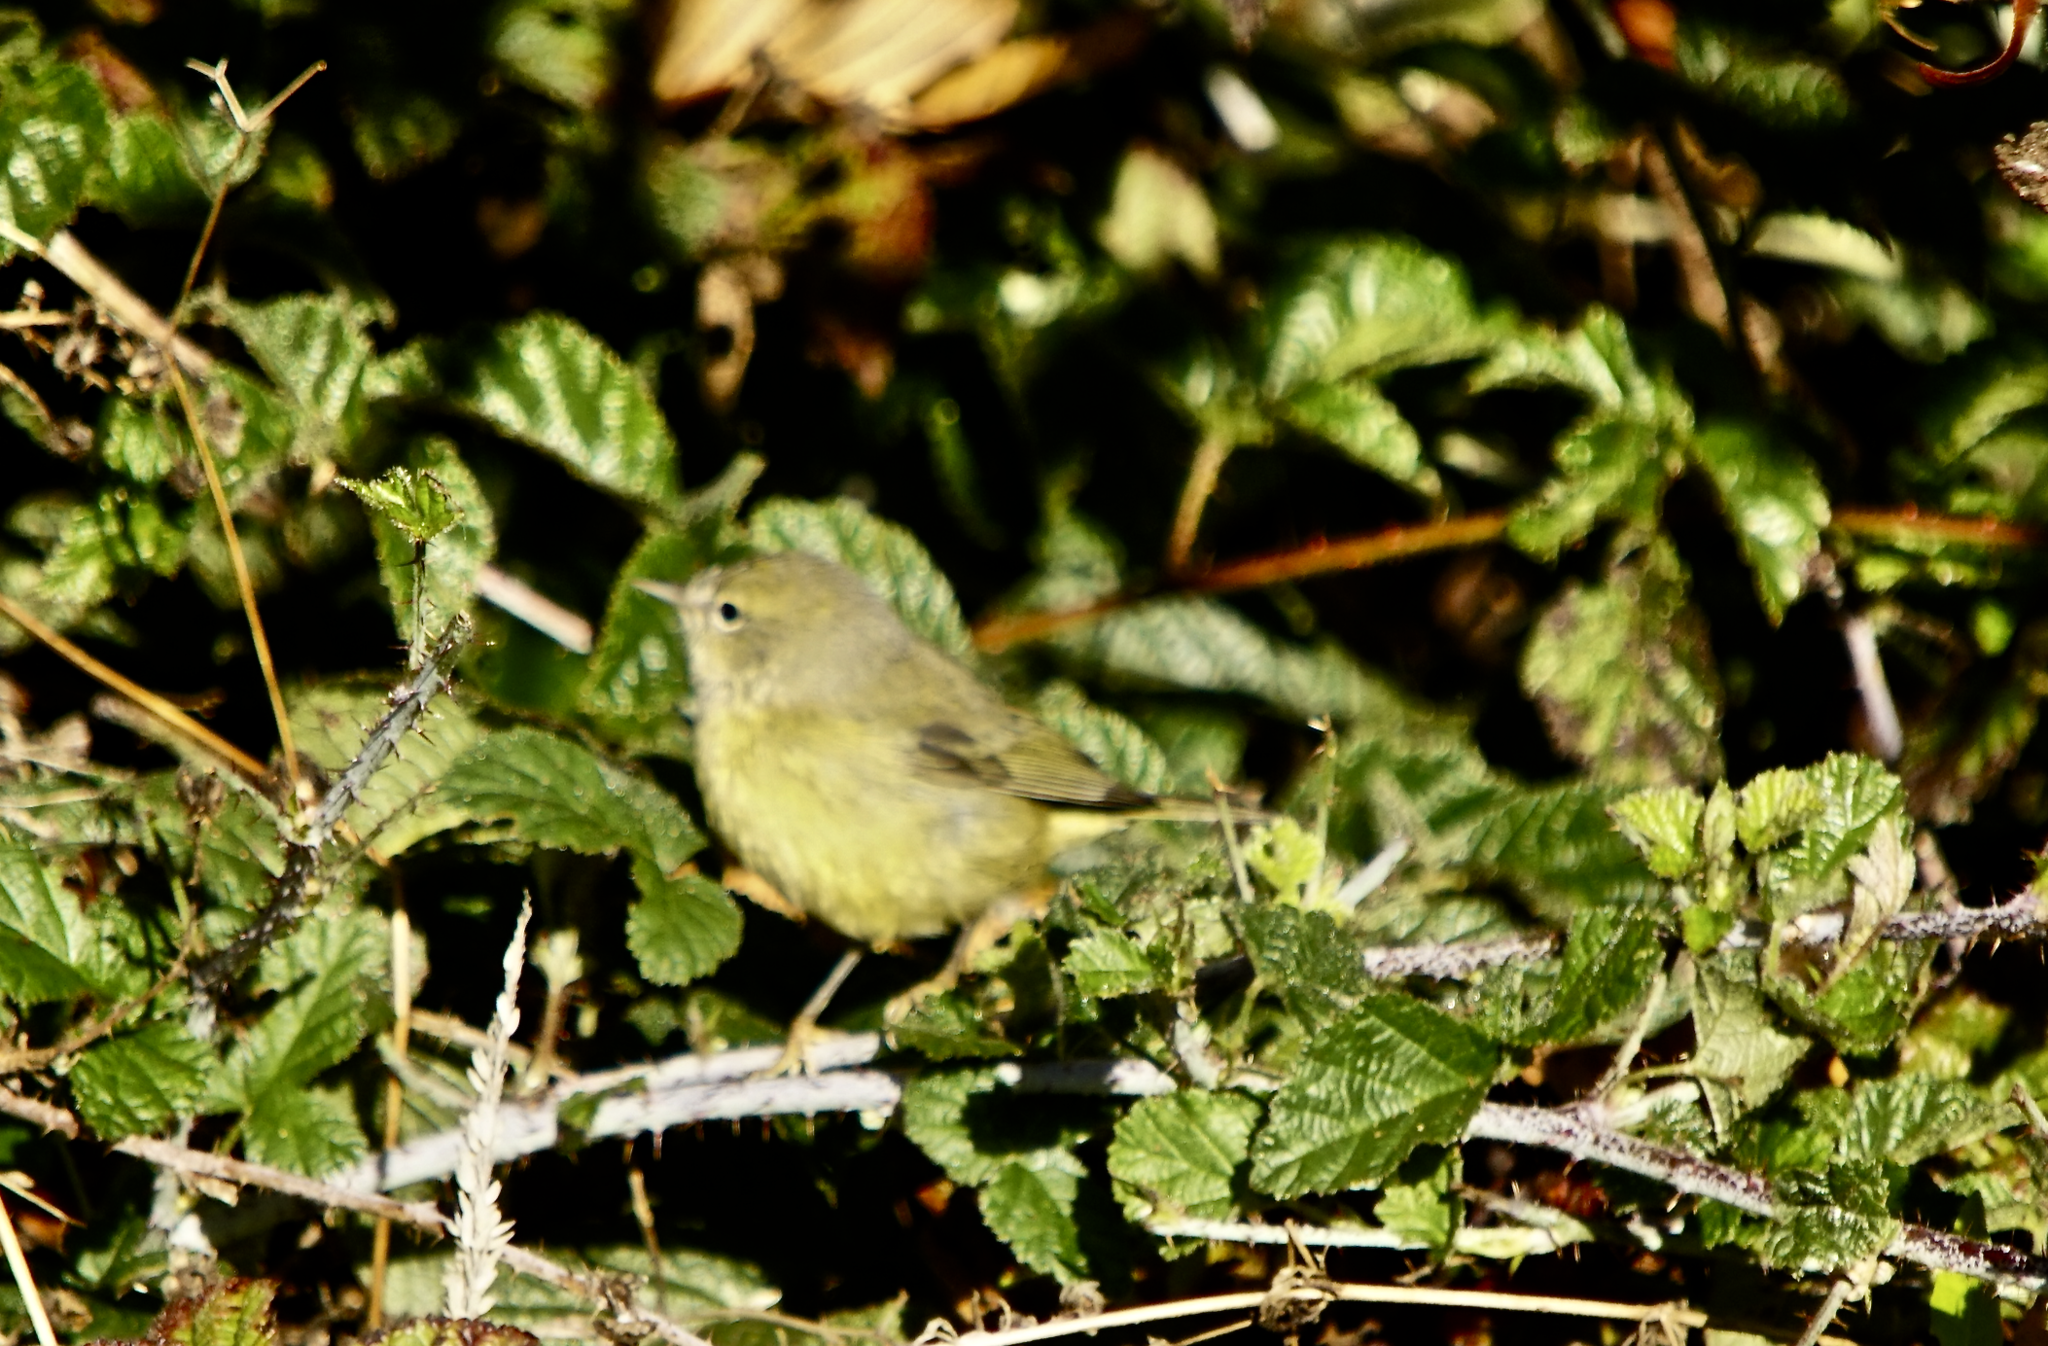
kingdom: Animalia
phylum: Chordata
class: Aves
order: Passeriformes
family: Parulidae
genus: Leiothlypis
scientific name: Leiothlypis celata
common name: Orange-crowned warbler
